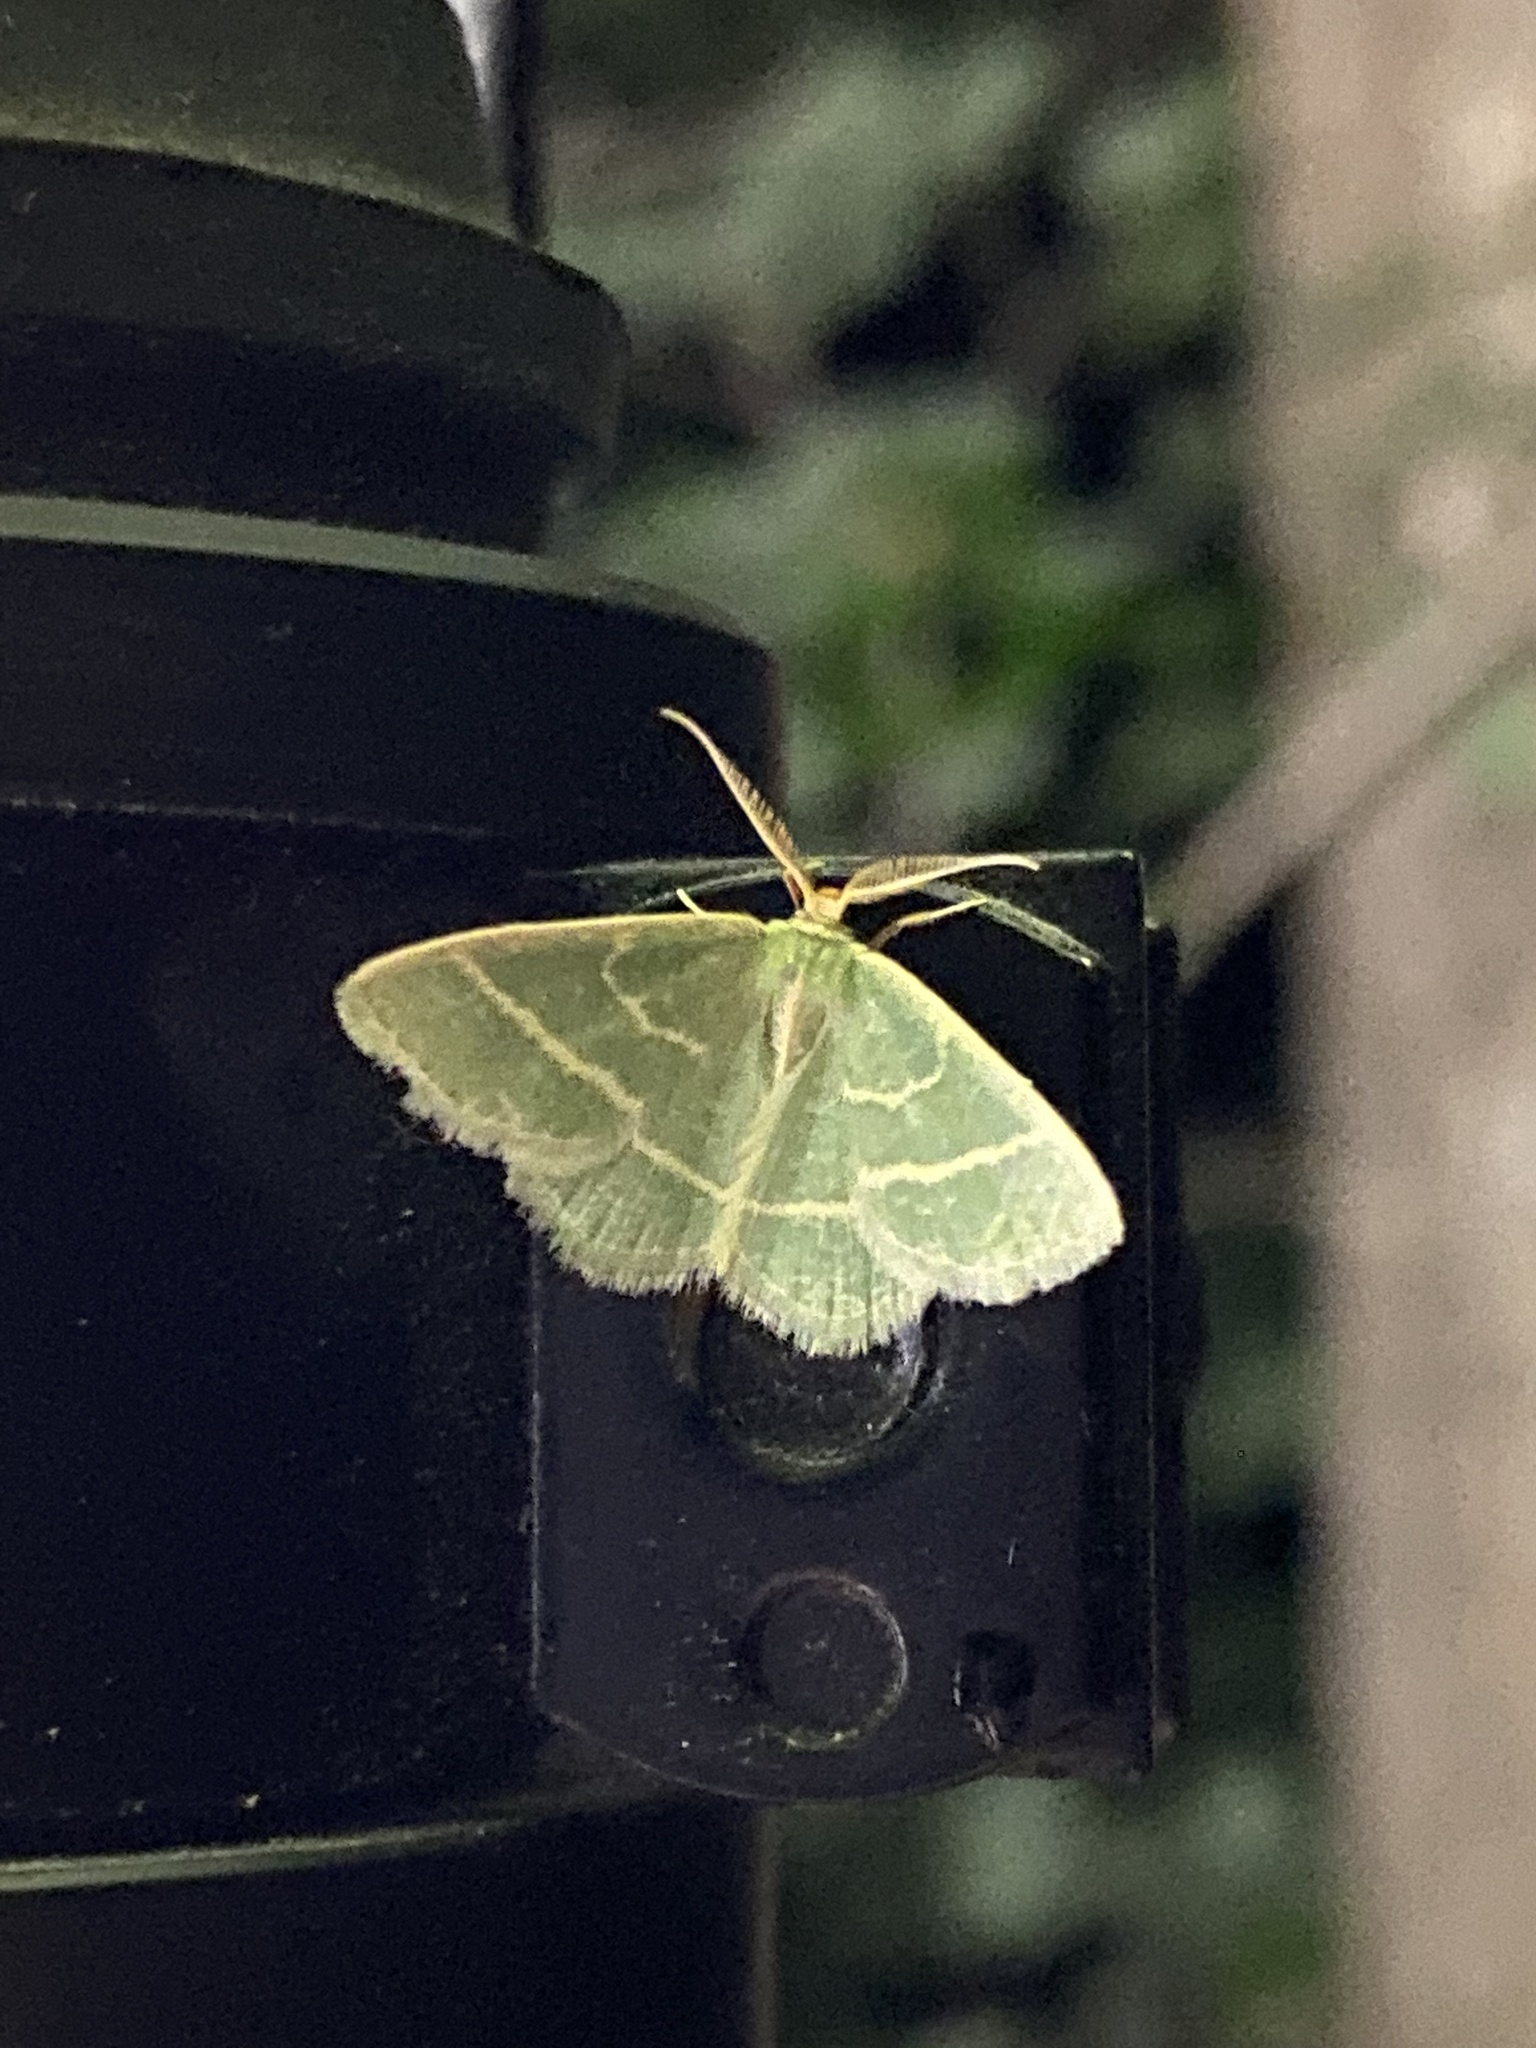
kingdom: Animalia
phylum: Arthropoda
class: Insecta
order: Lepidoptera
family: Geometridae
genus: Chlorochlamys
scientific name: Chlorochlamys chloroleucaria
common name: Blackberry looper
